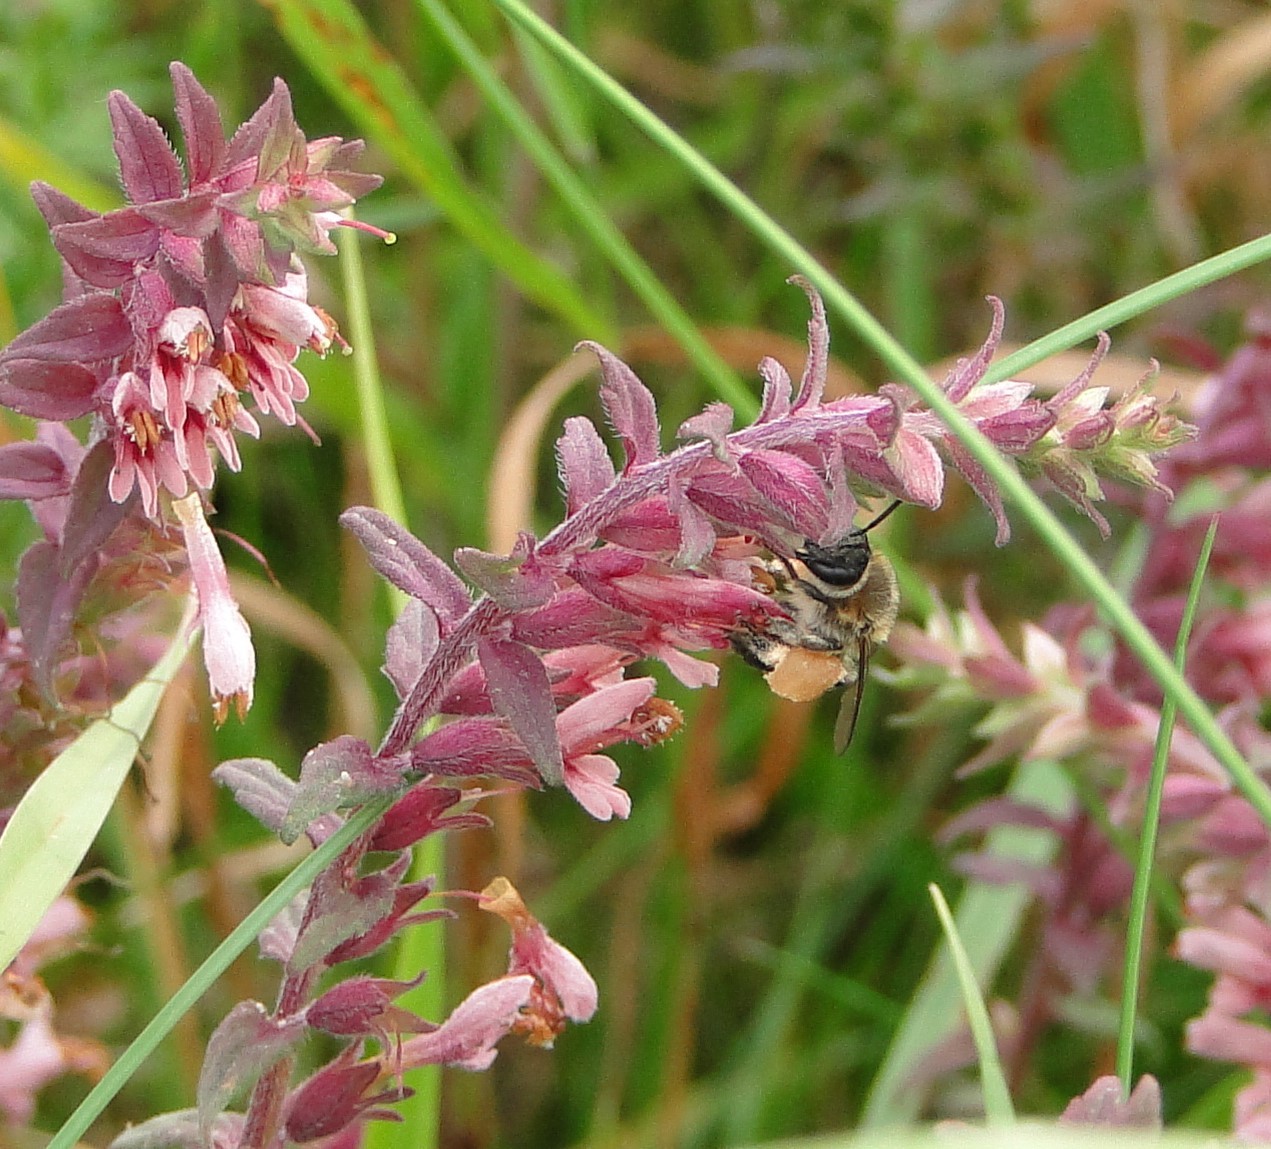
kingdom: Animalia
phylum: Arthropoda
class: Insecta
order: Hymenoptera
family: Melittidae
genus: Melitta
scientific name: Melitta tricincta
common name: Red bartsia bee
